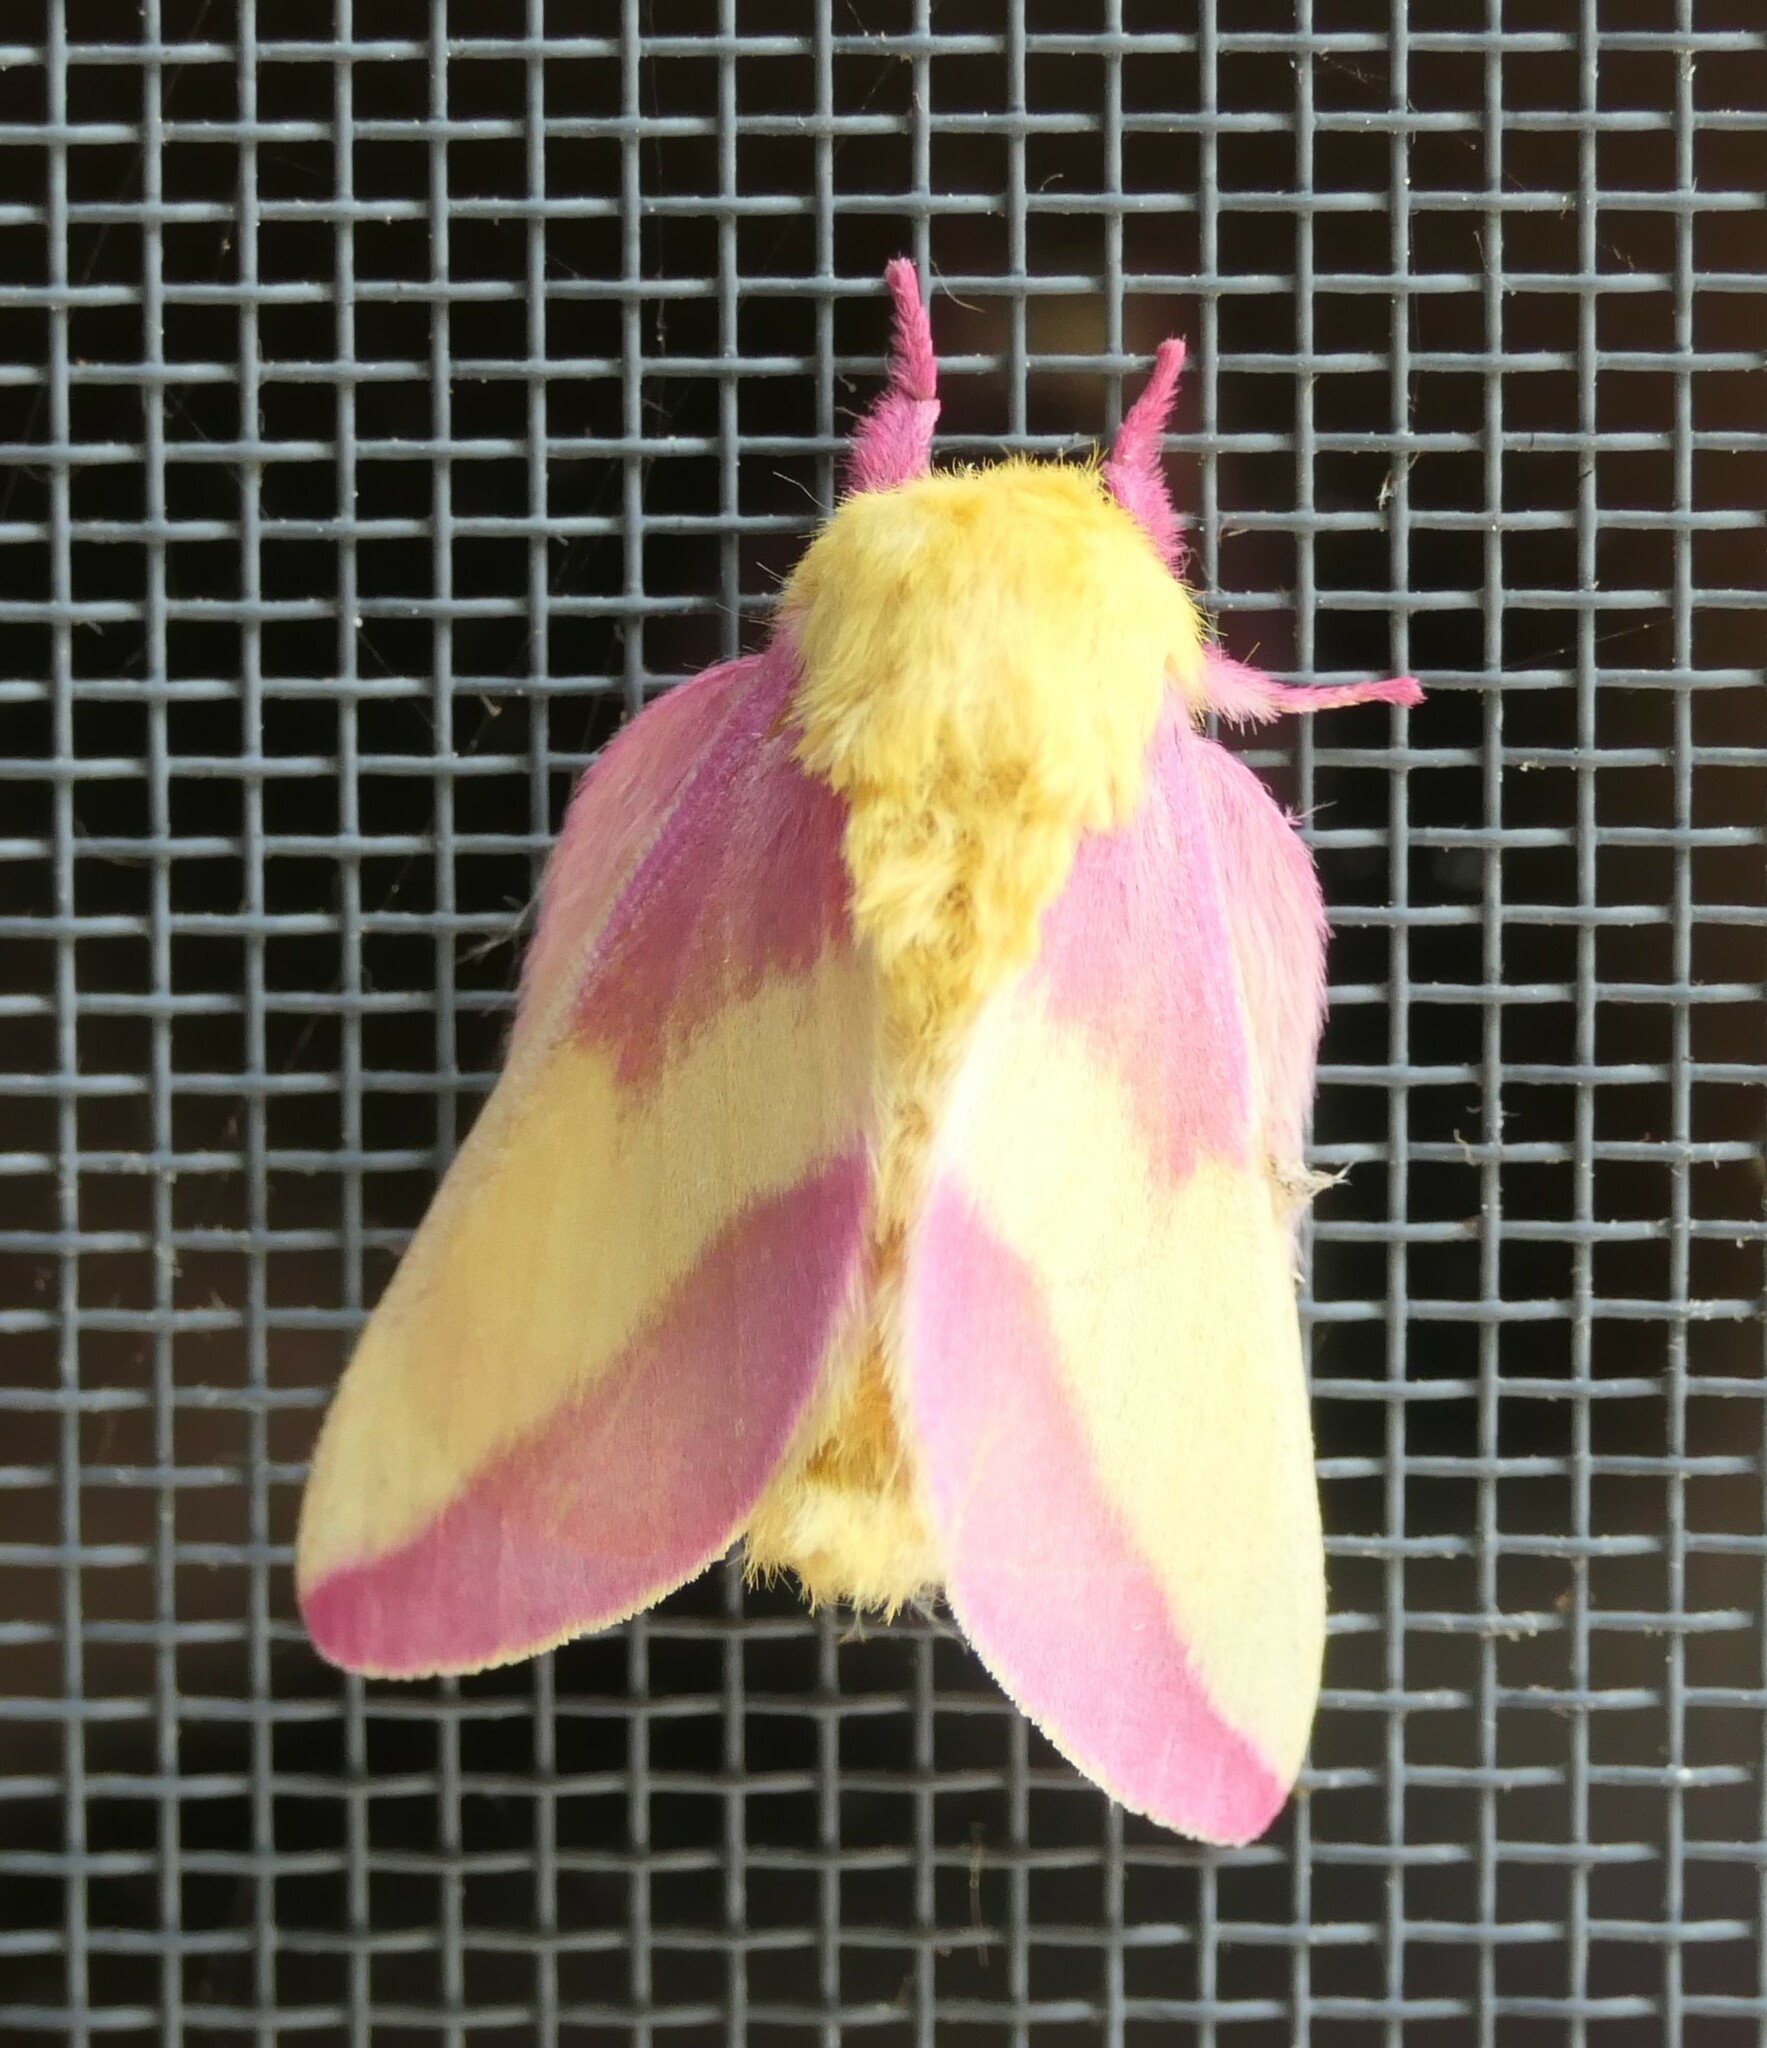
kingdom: Animalia
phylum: Arthropoda
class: Insecta
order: Lepidoptera
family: Saturniidae
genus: Dryocampa
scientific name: Dryocampa rubicunda
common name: Rosy maple moth
